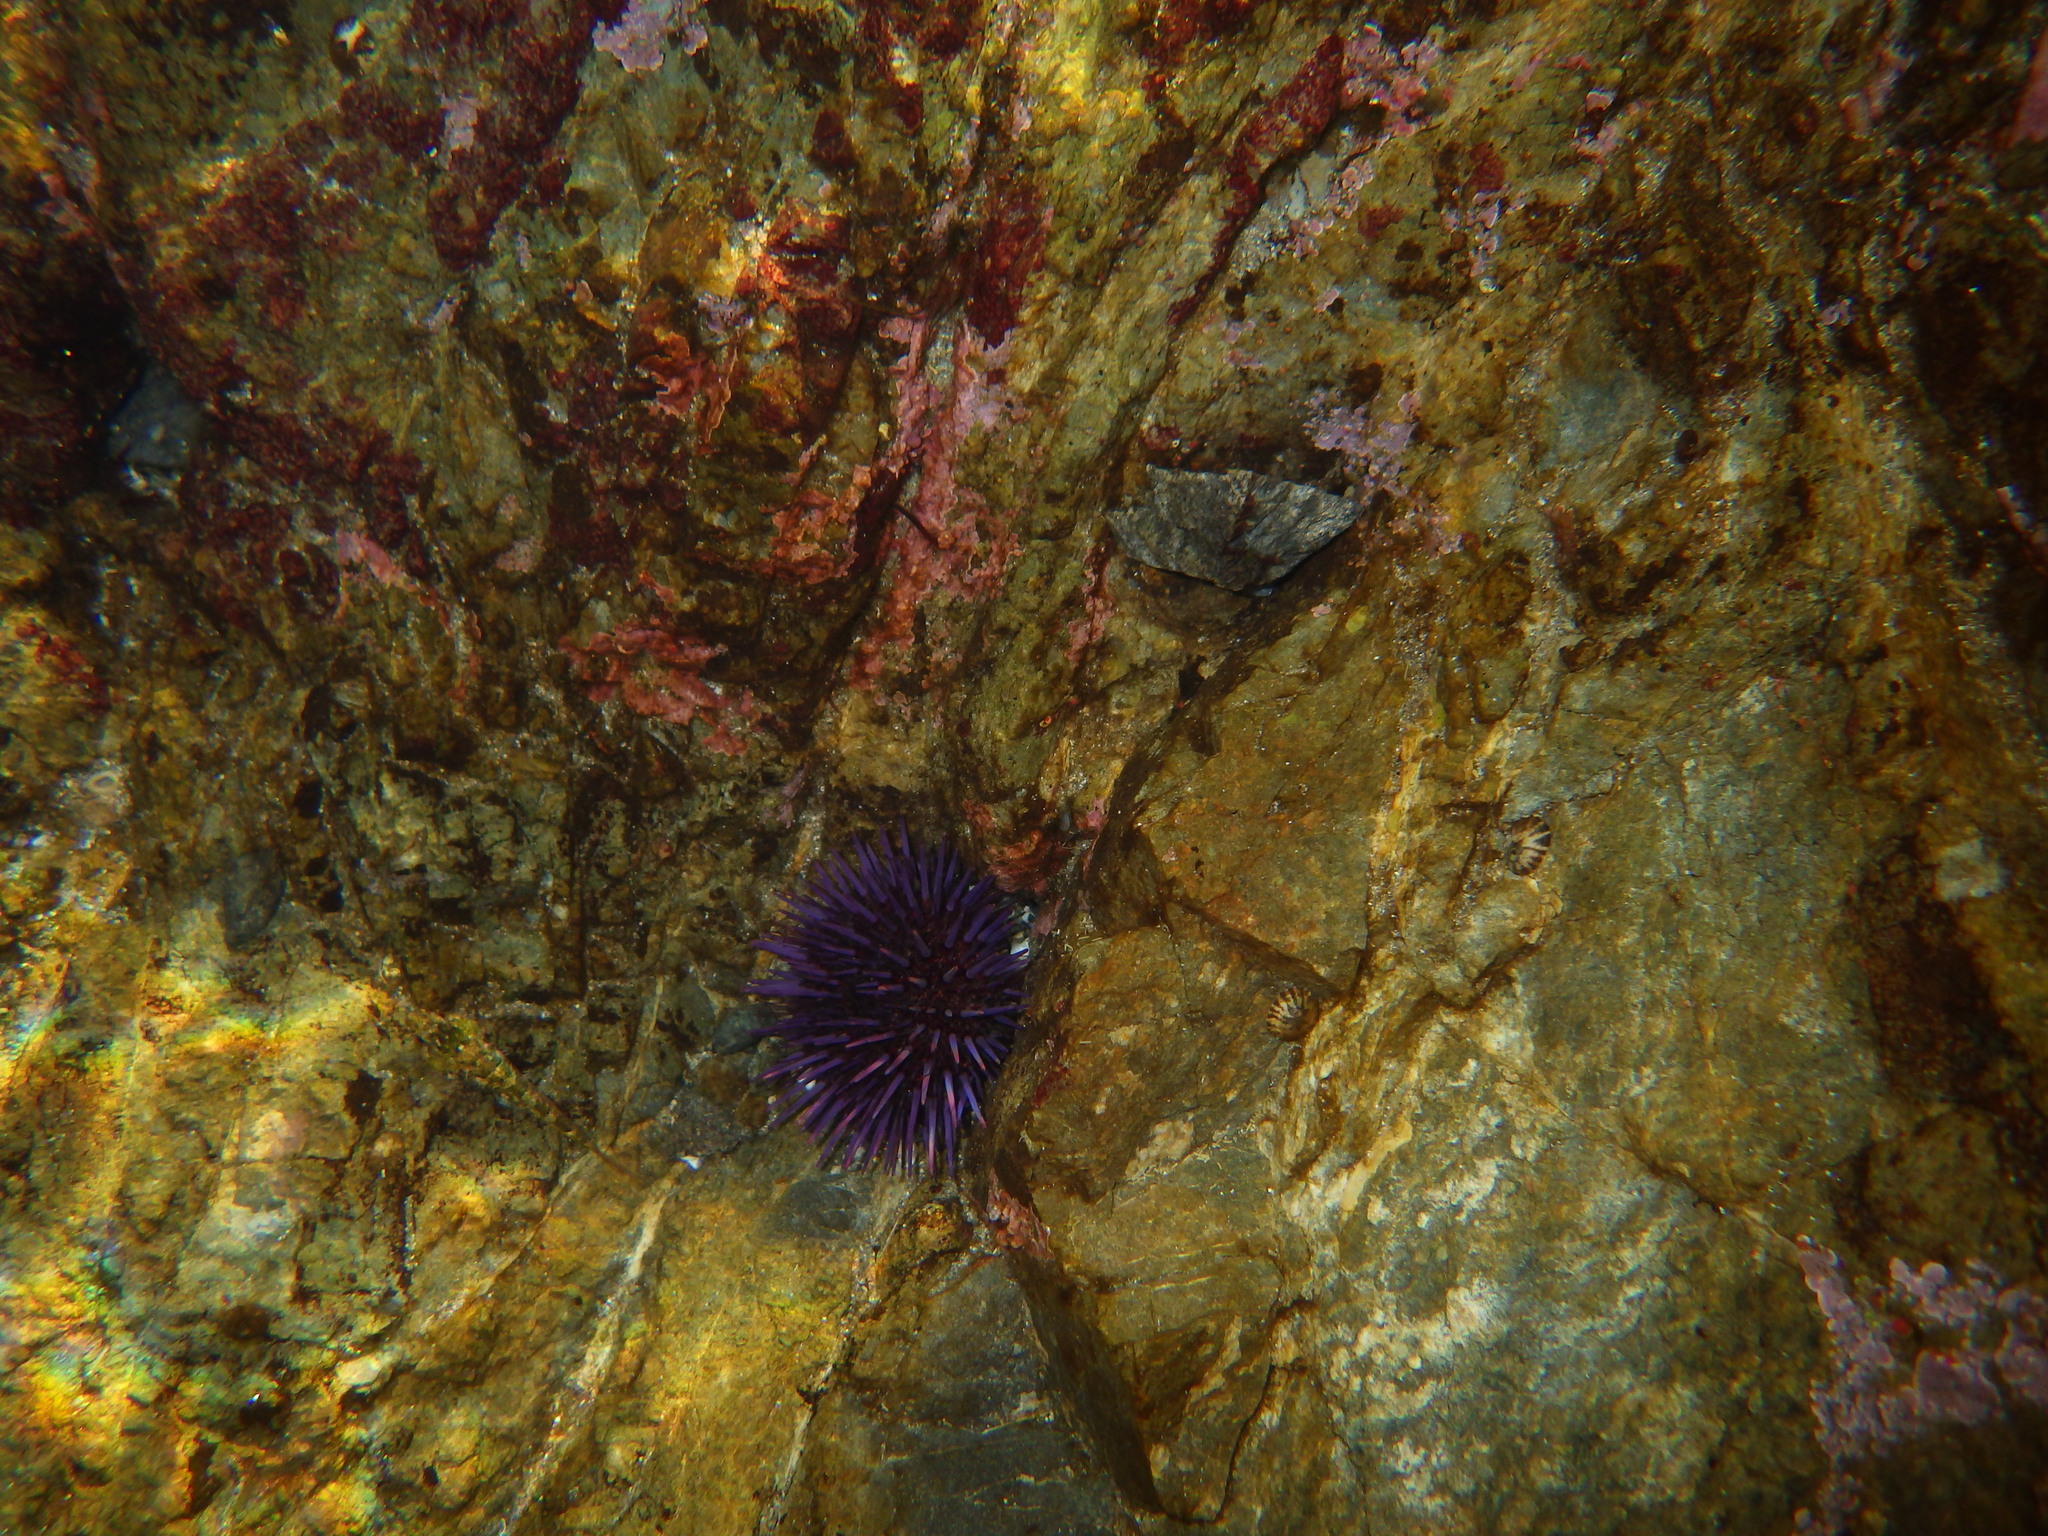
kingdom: Animalia
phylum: Echinodermata
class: Echinoidea
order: Camarodonta
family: Strongylocentrotidae
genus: Strongylocentrotus
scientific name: Strongylocentrotus purpuratus
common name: Purple sea urchin
